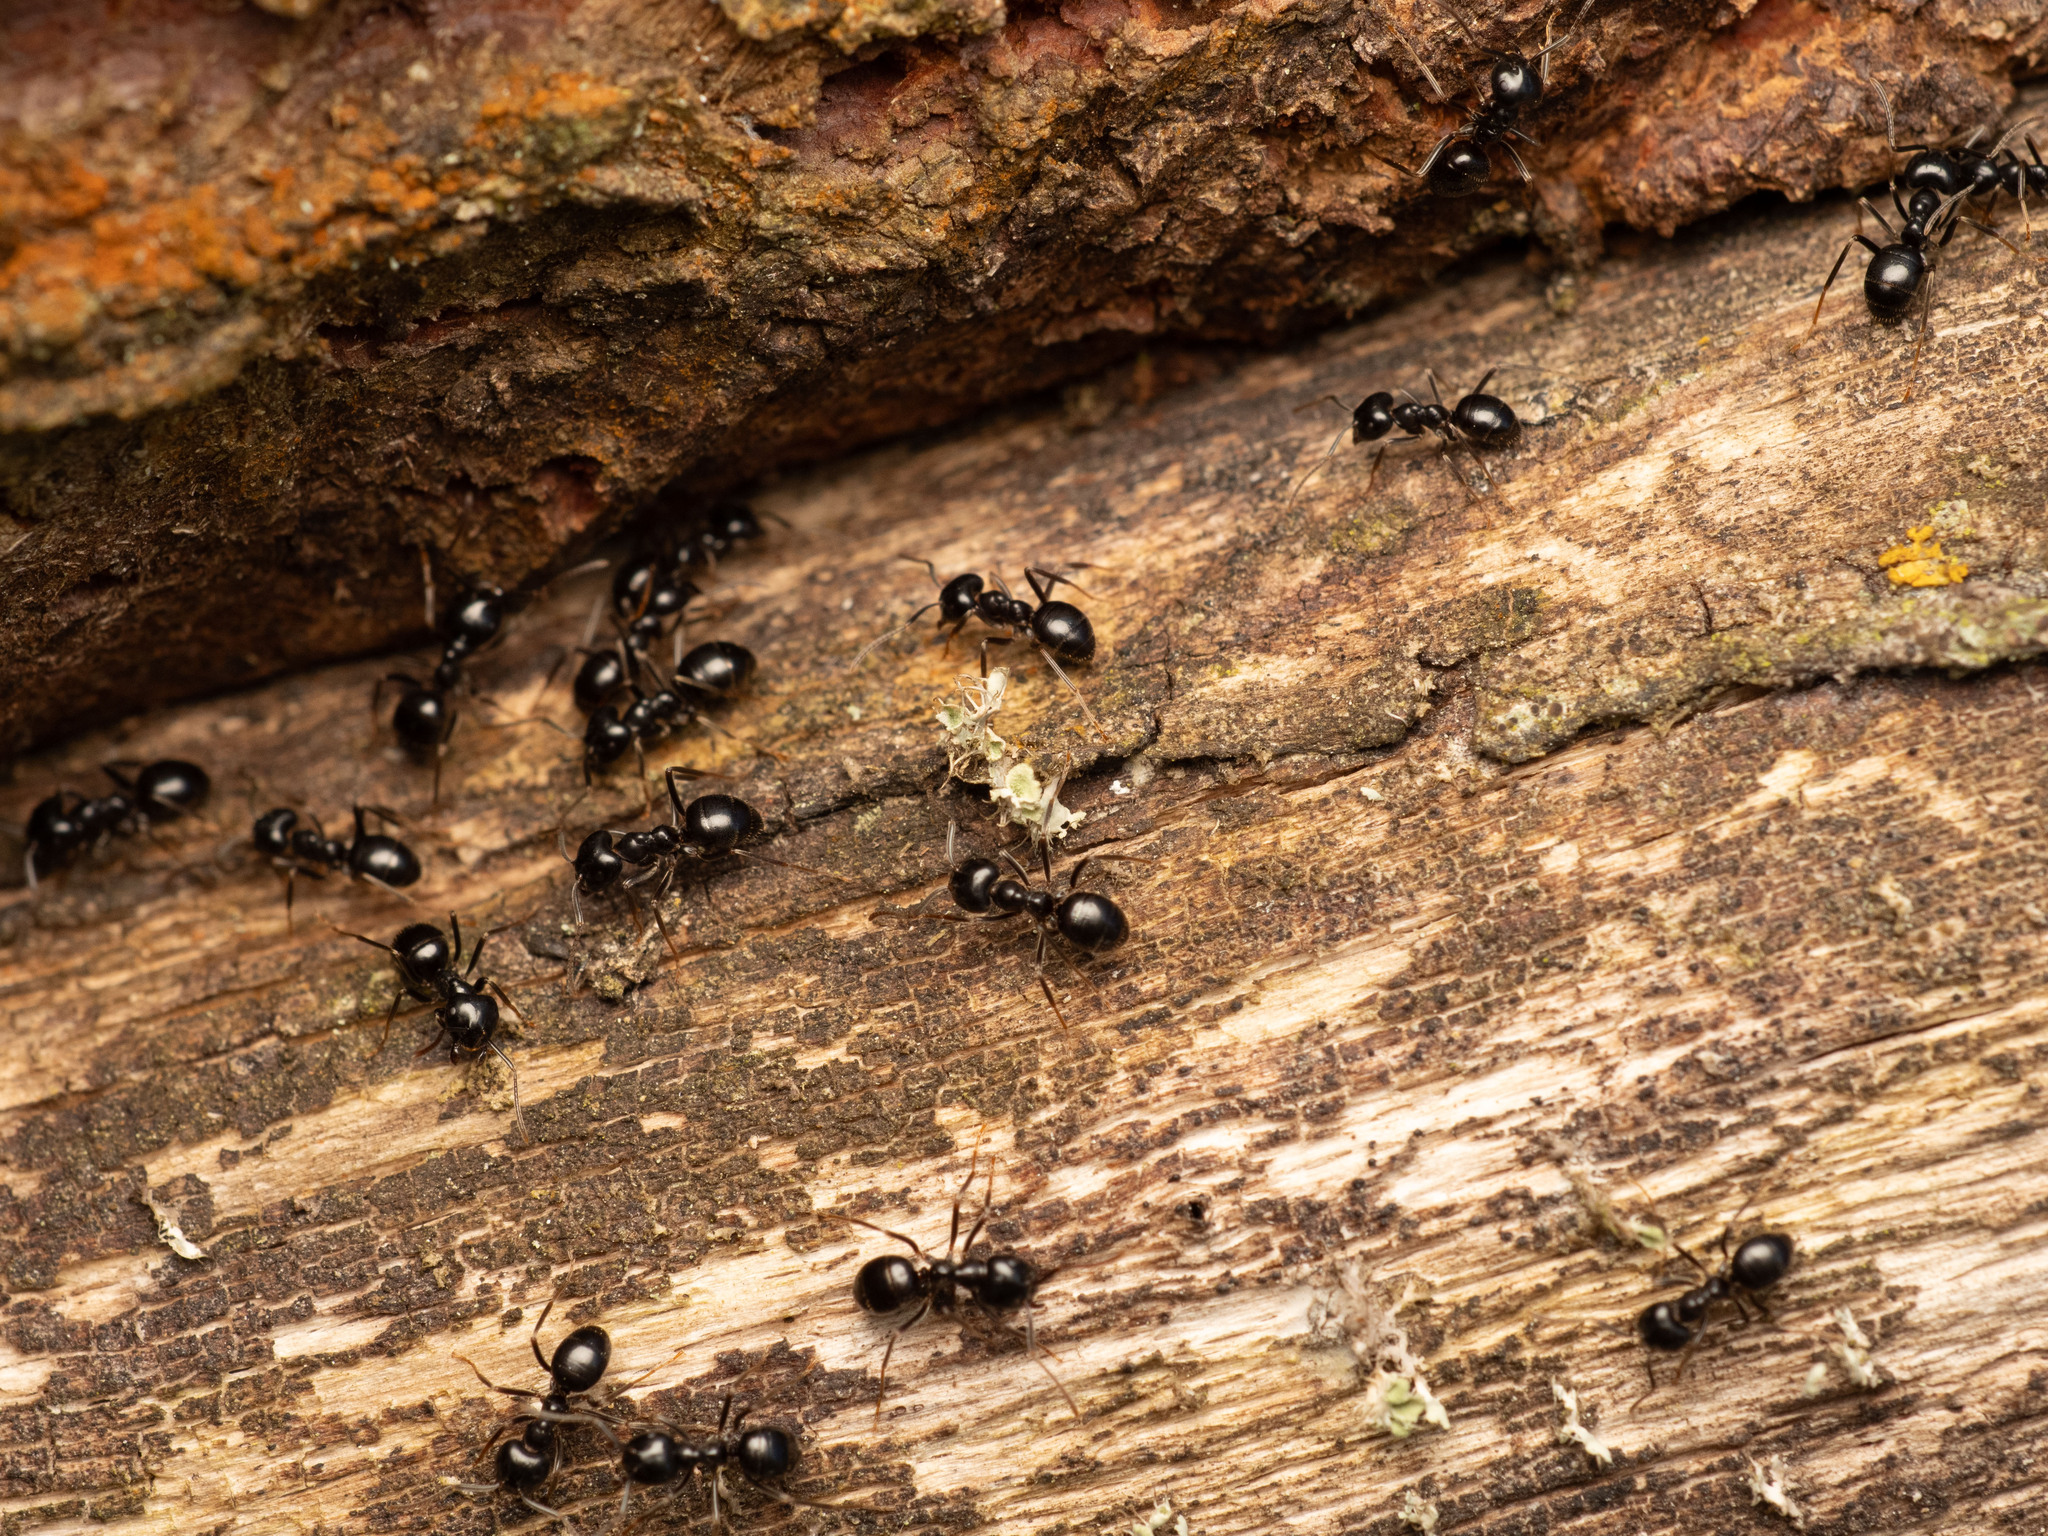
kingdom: Animalia
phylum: Arthropoda
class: Insecta
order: Hymenoptera
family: Formicidae
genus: Lasius
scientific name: Lasius fuliginosus
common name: Jet ant
